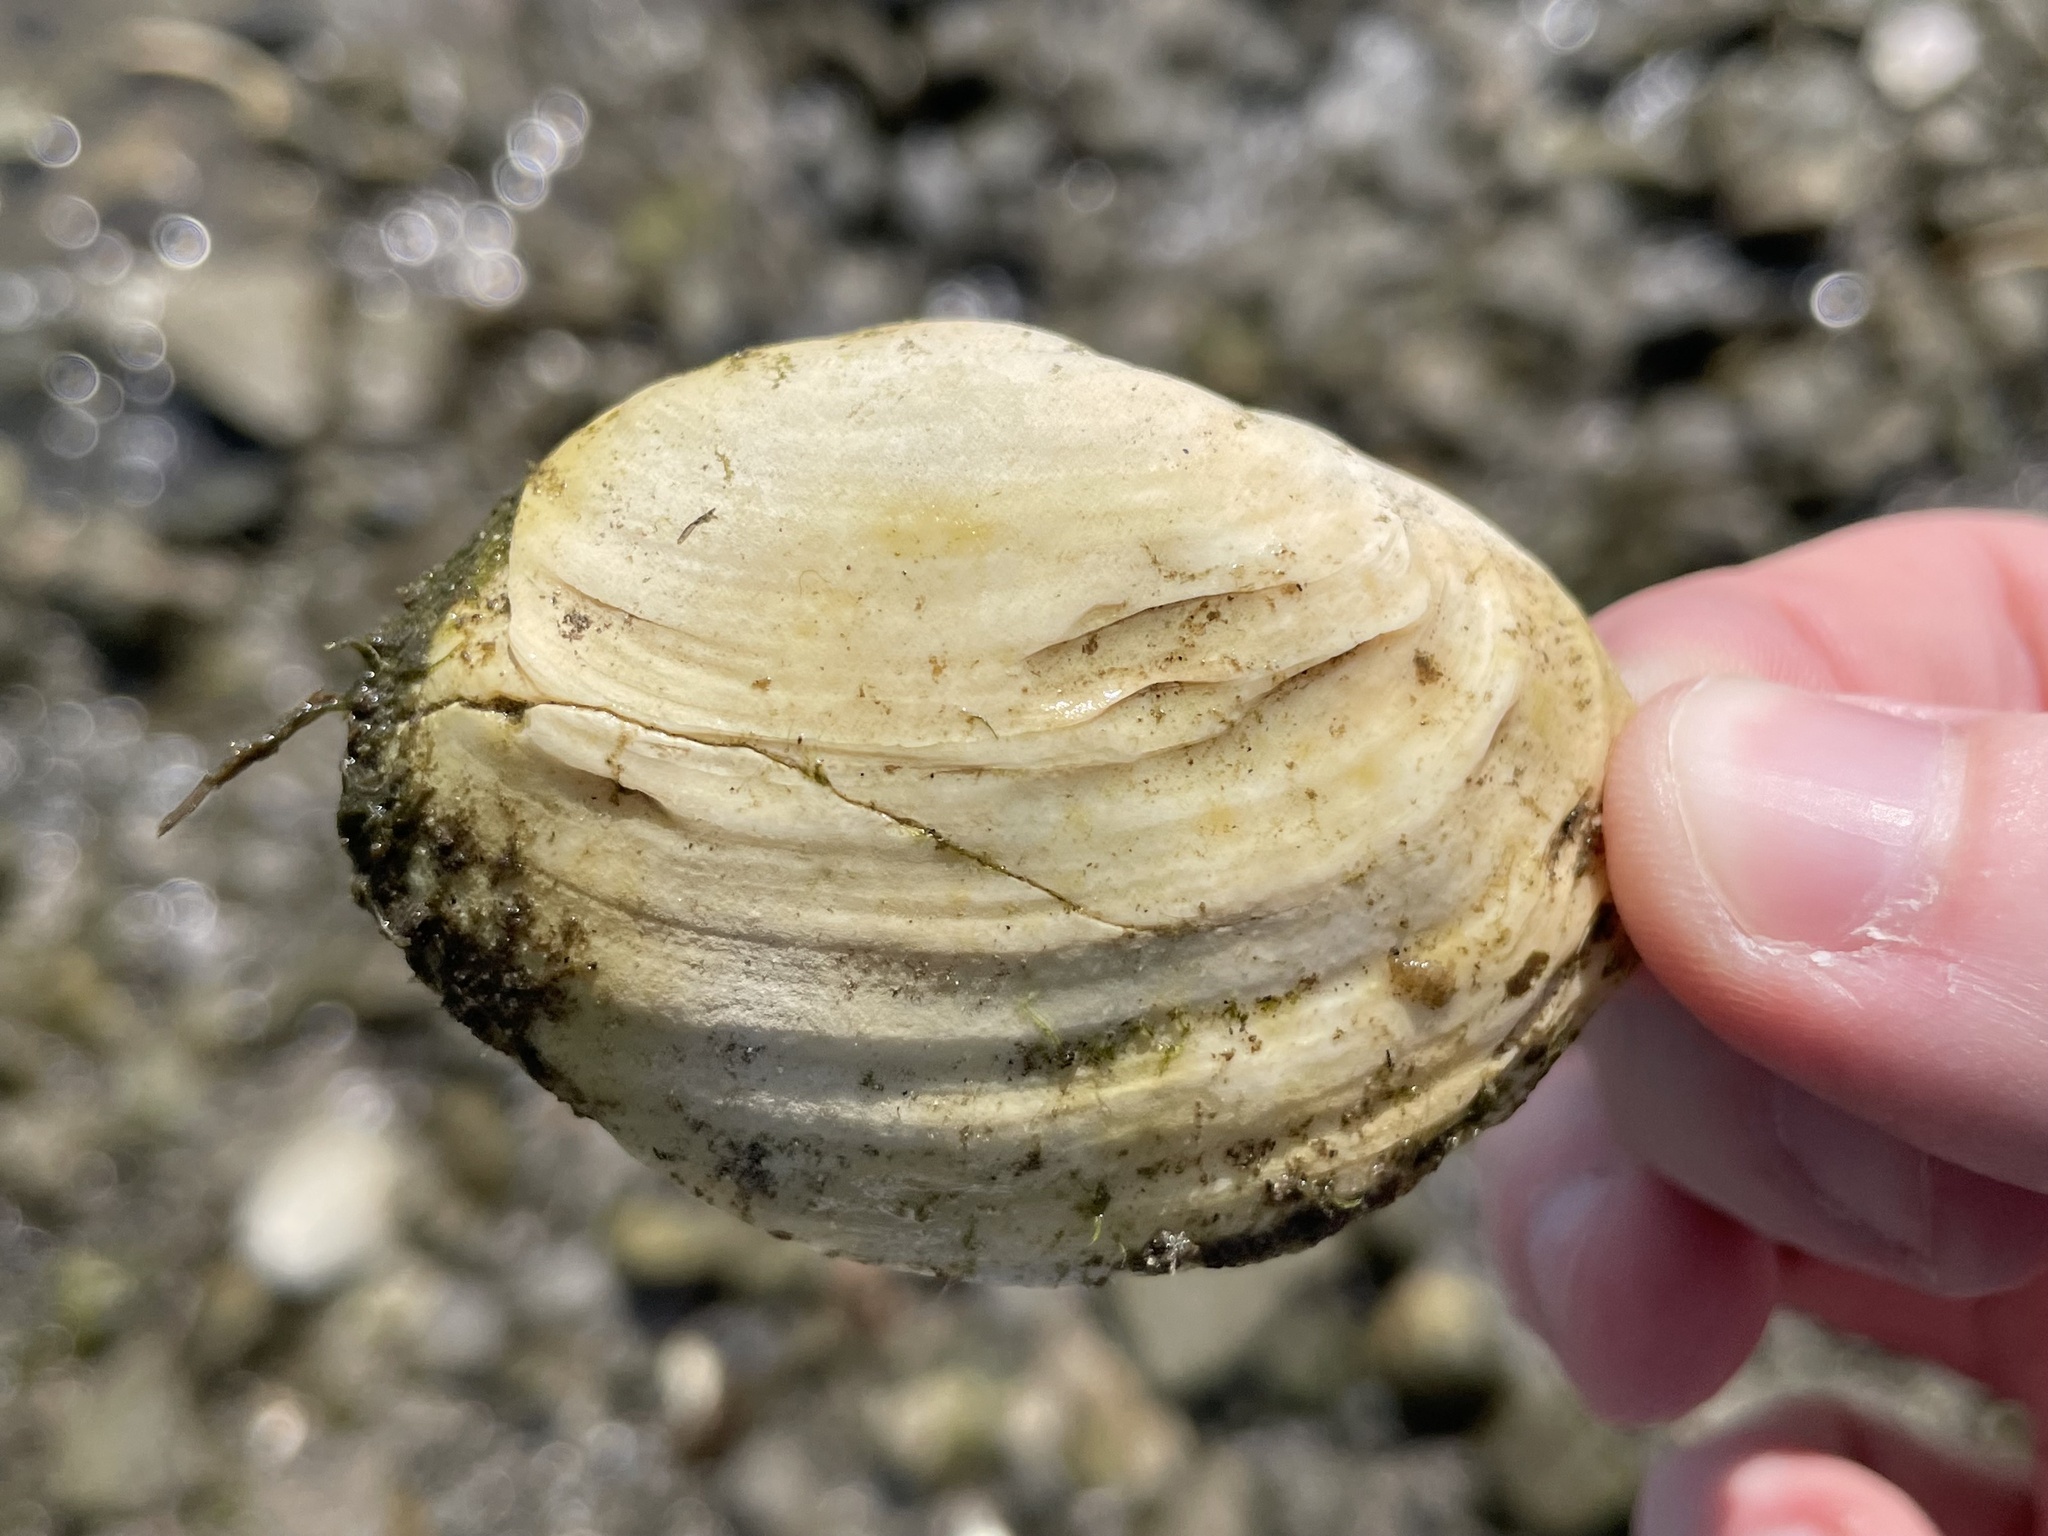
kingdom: Animalia
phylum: Mollusca
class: Bivalvia
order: Myida
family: Myidae
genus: Mya
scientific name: Mya arenaria
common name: Soft-shelled clam
